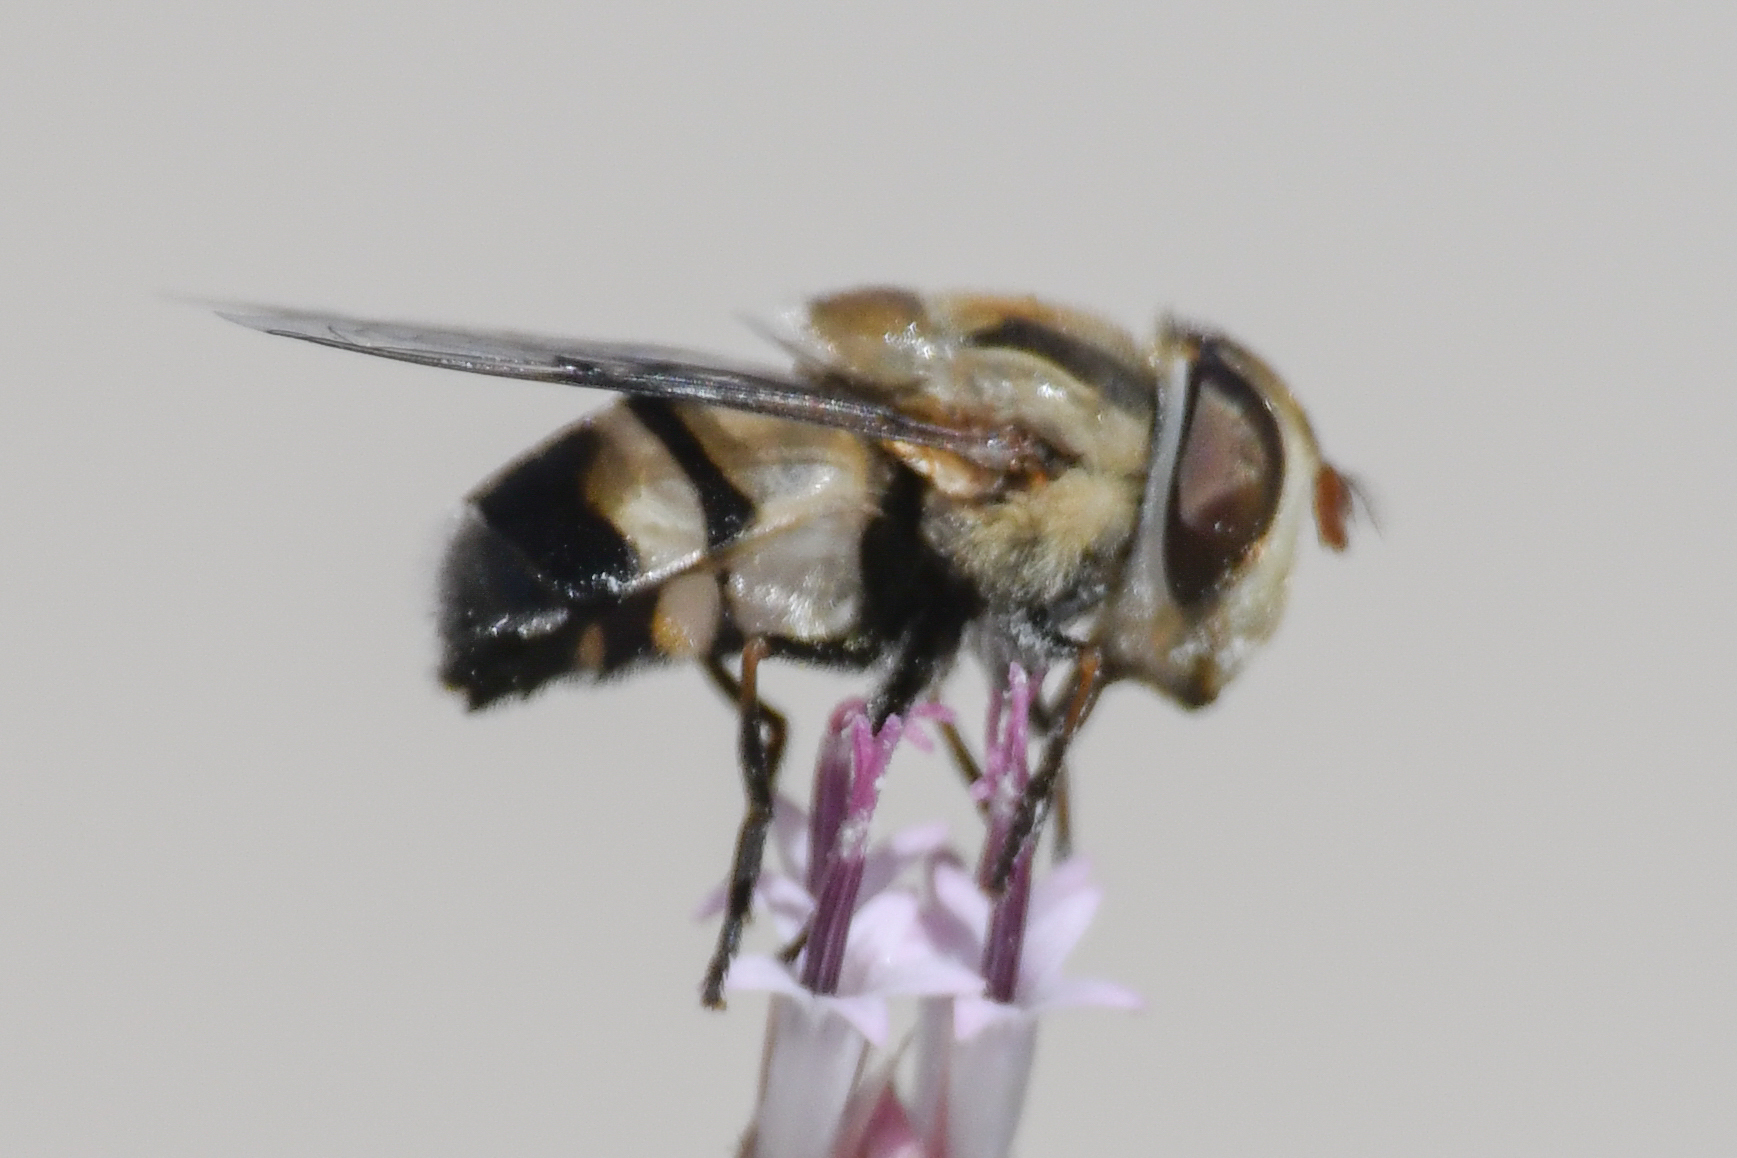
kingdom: Animalia
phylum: Arthropoda
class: Insecta
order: Diptera
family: Syrphidae
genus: Copestylum
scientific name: Copestylum apiciferum
